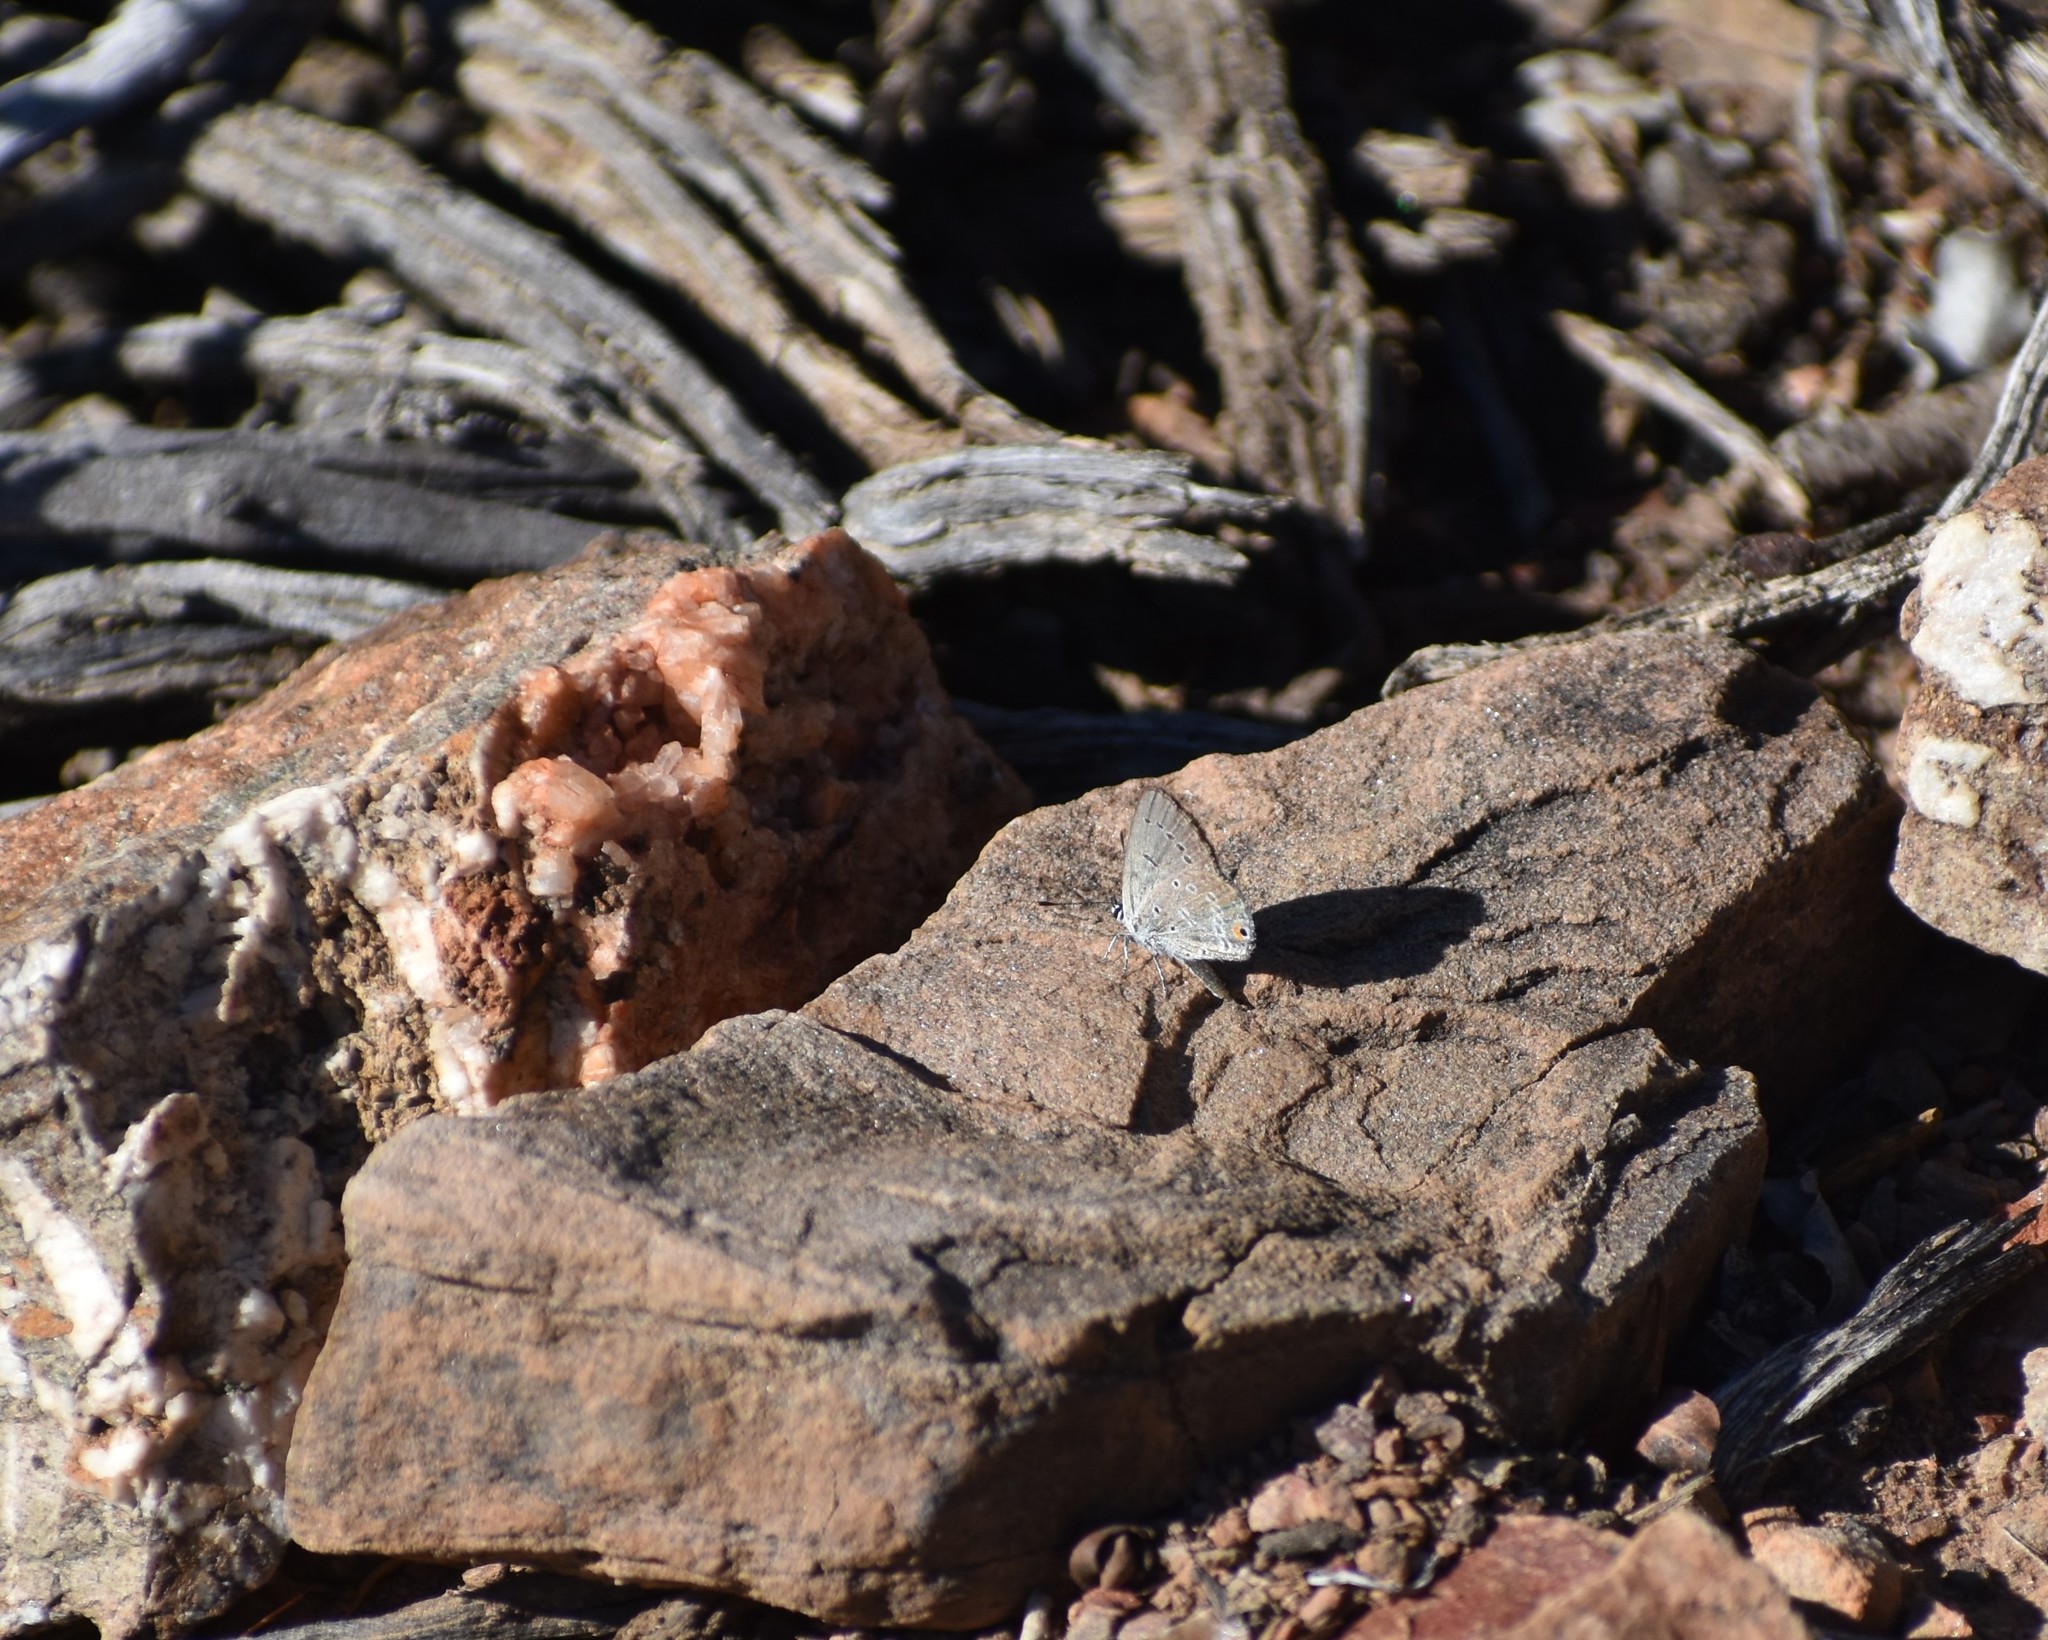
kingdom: Animalia
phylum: Arthropoda
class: Insecta
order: Lepidoptera
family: Lycaenidae
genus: Eicochrysops
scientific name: Eicochrysops messapus
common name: Cupreous blue
